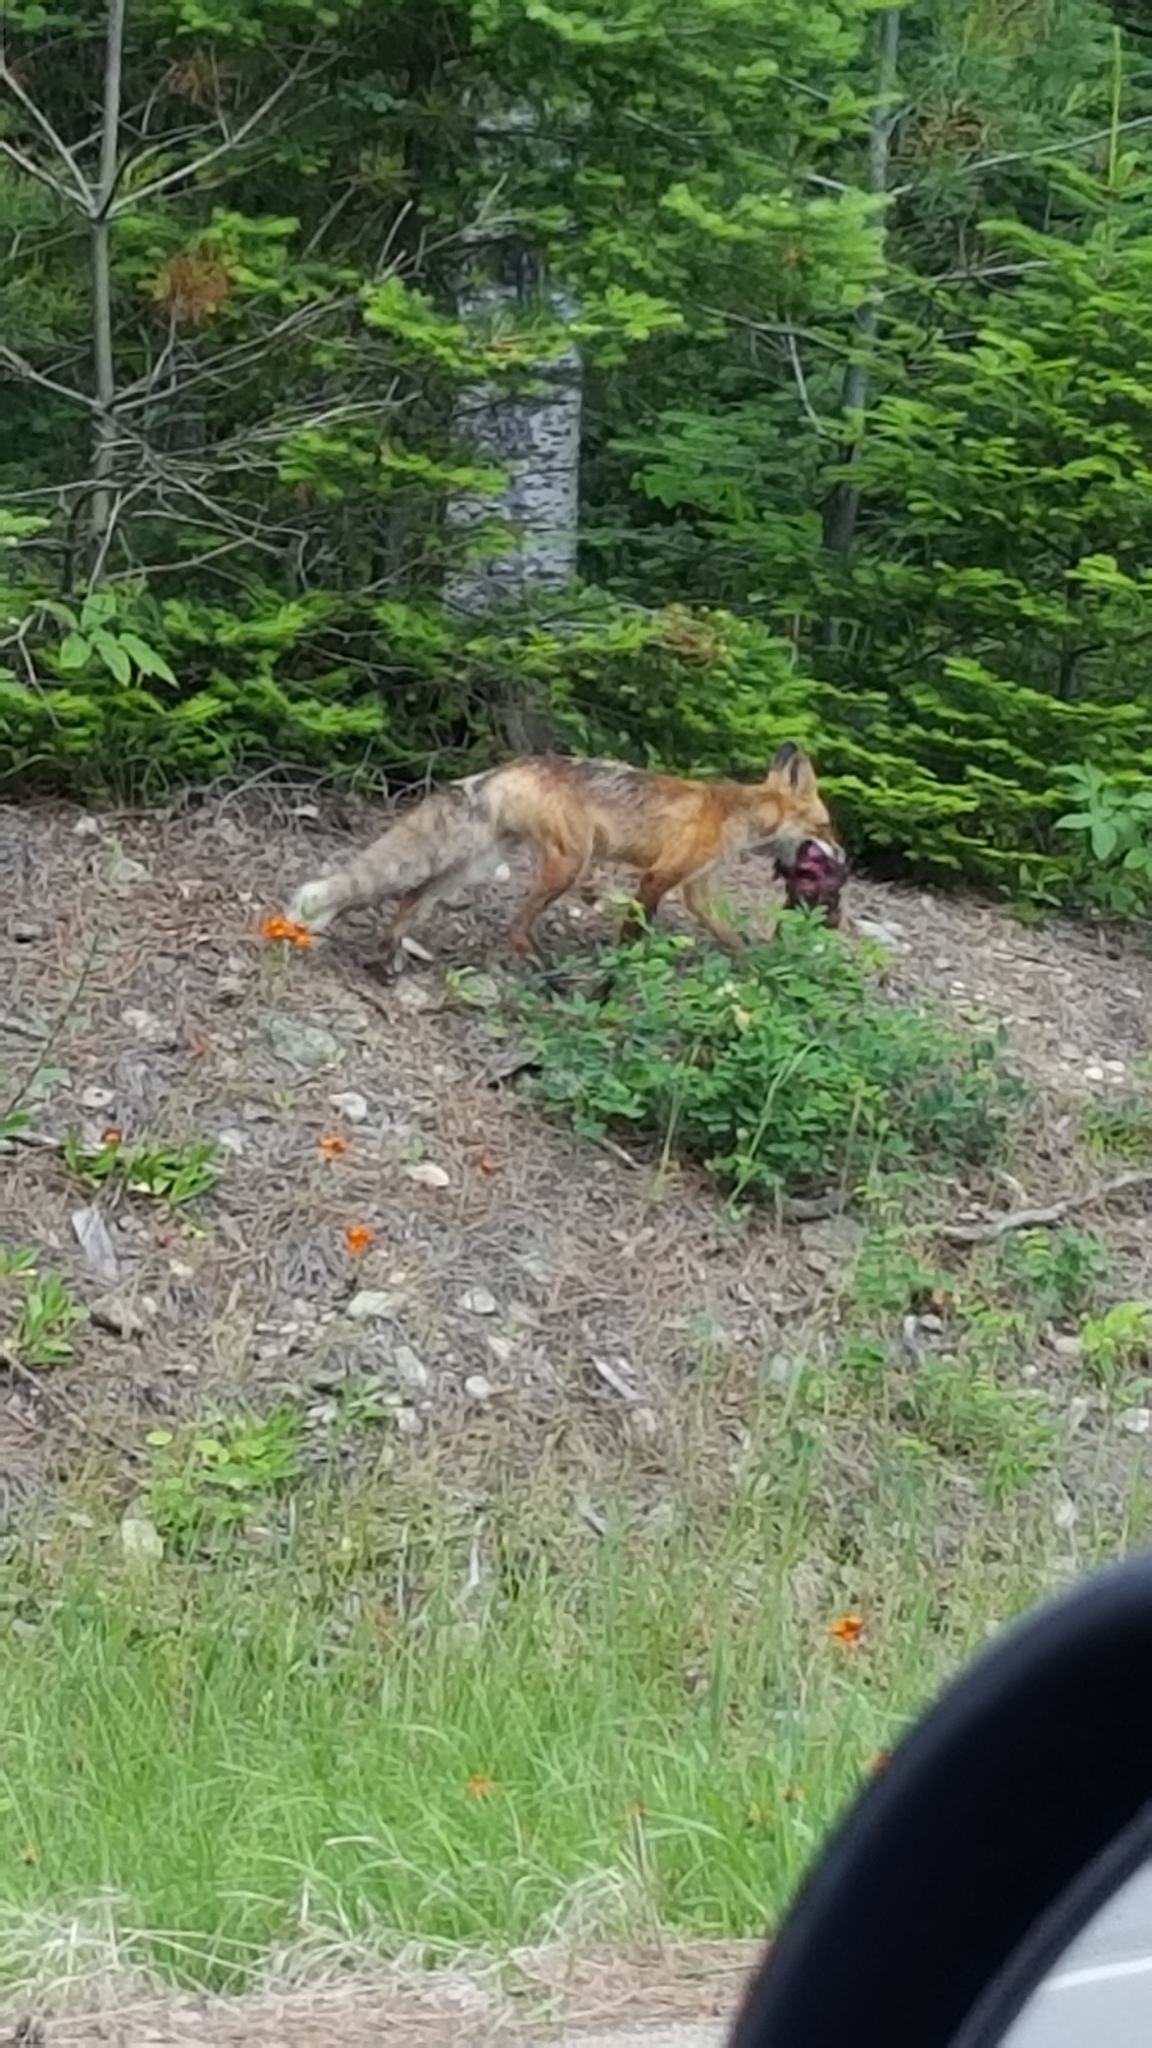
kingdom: Animalia
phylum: Chordata
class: Mammalia
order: Carnivora
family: Canidae
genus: Vulpes
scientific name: Vulpes vulpes
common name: Red fox
